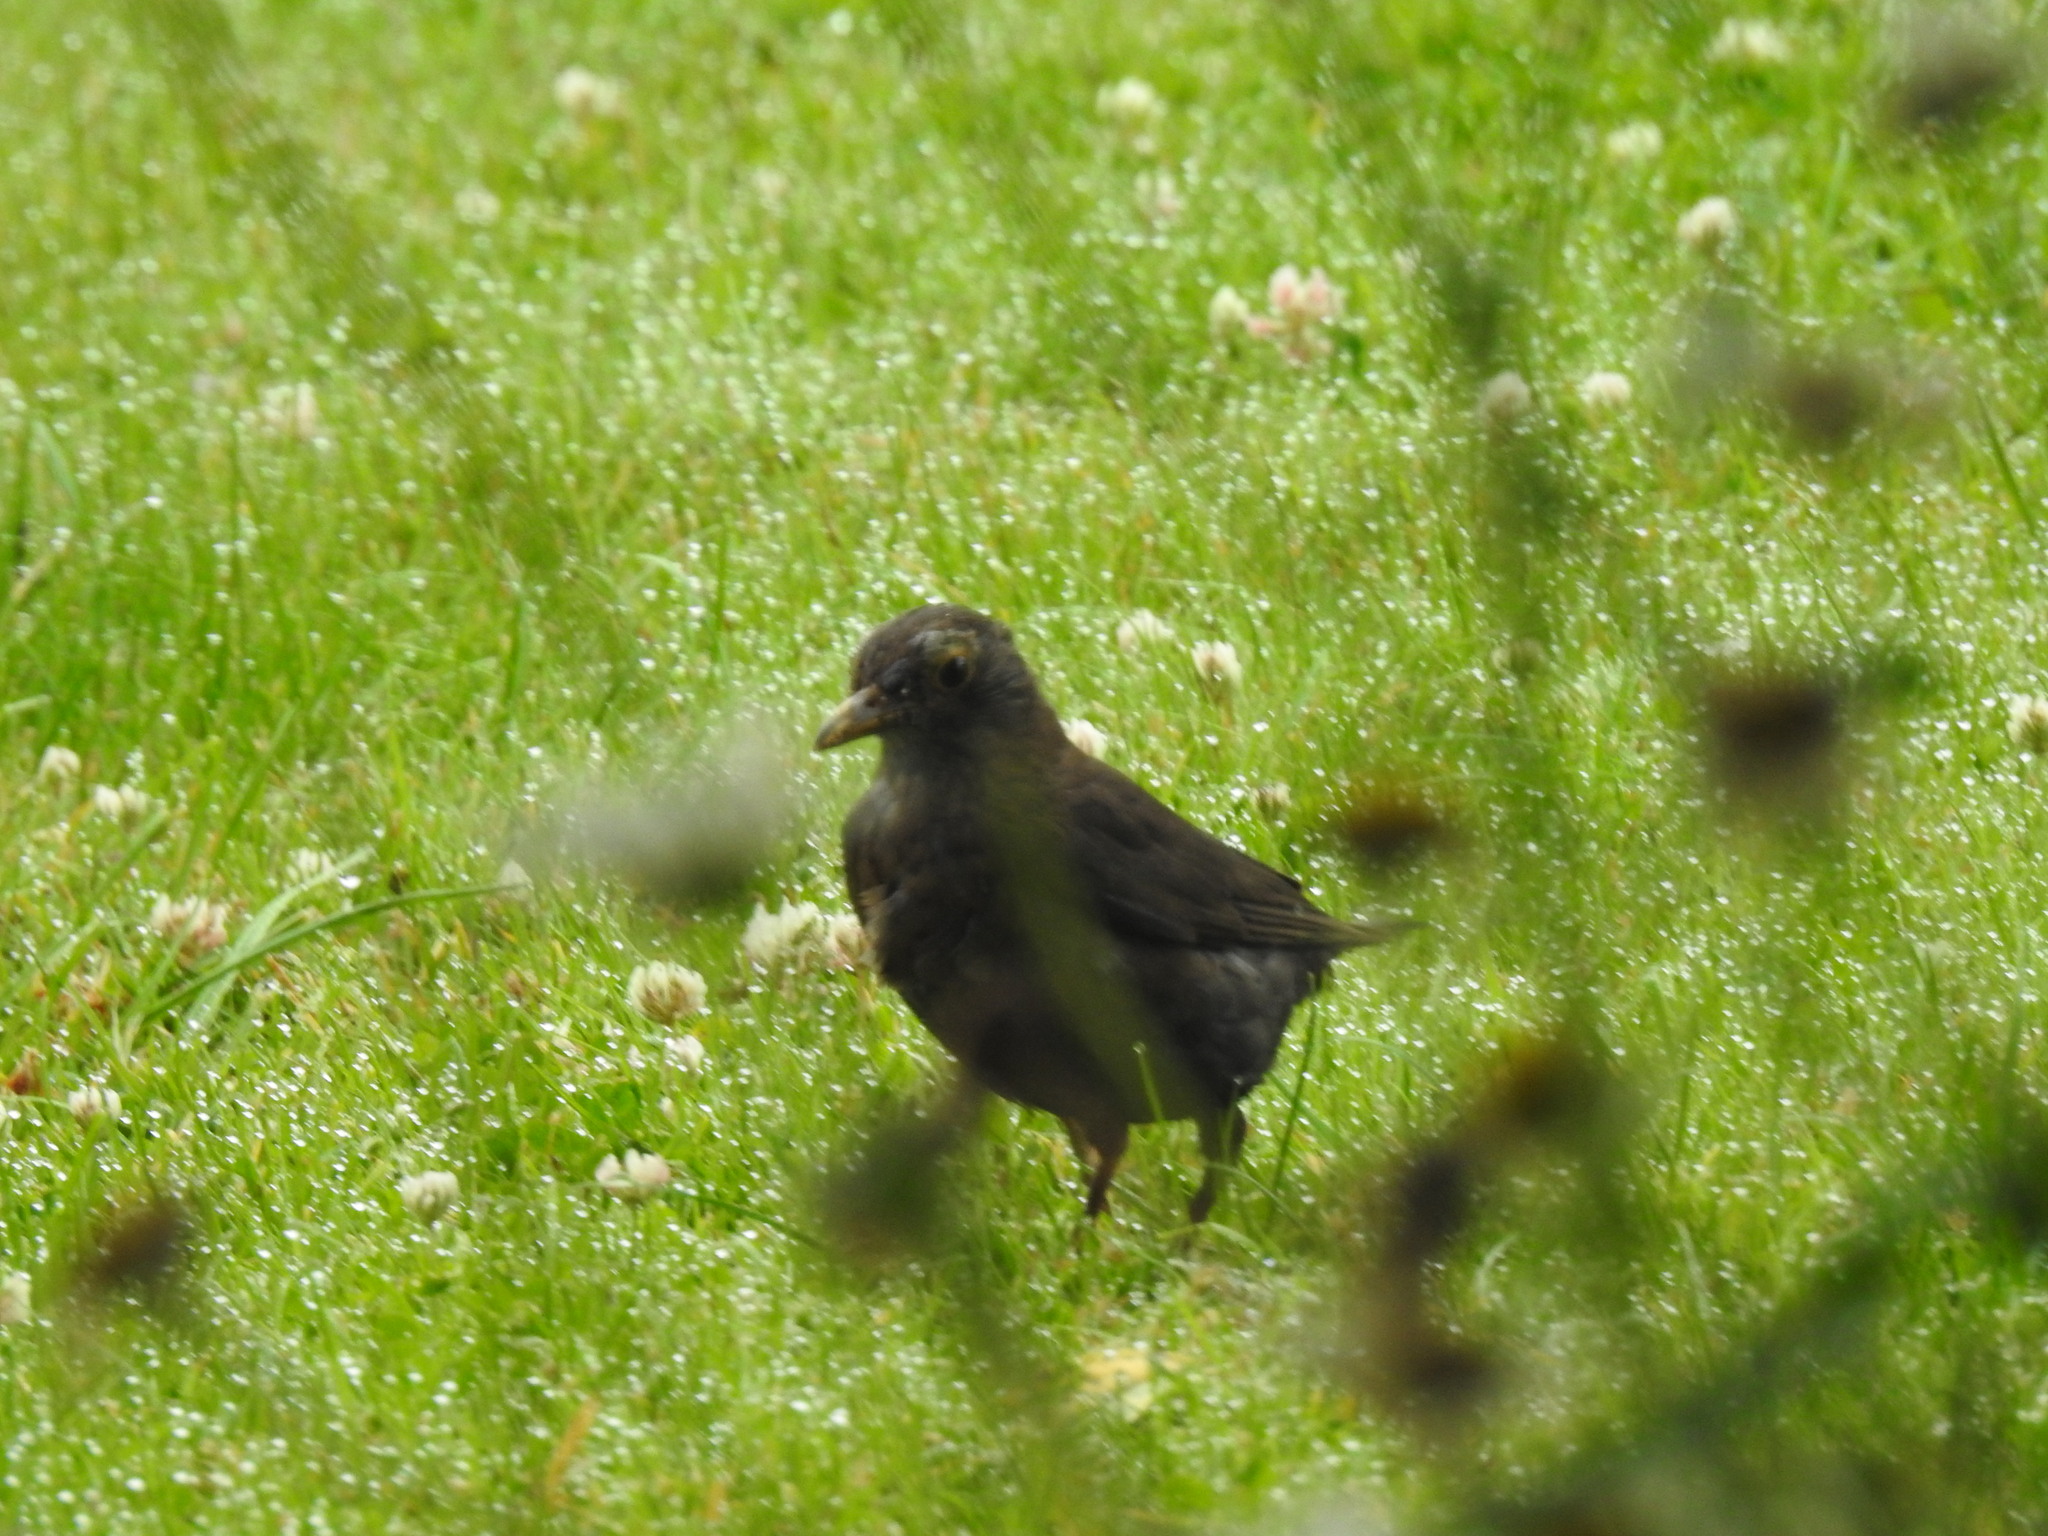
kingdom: Animalia
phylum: Chordata
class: Aves
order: Passeriformes
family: Turdidae
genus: Turdus
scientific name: Turdus merula
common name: Common blackbird
